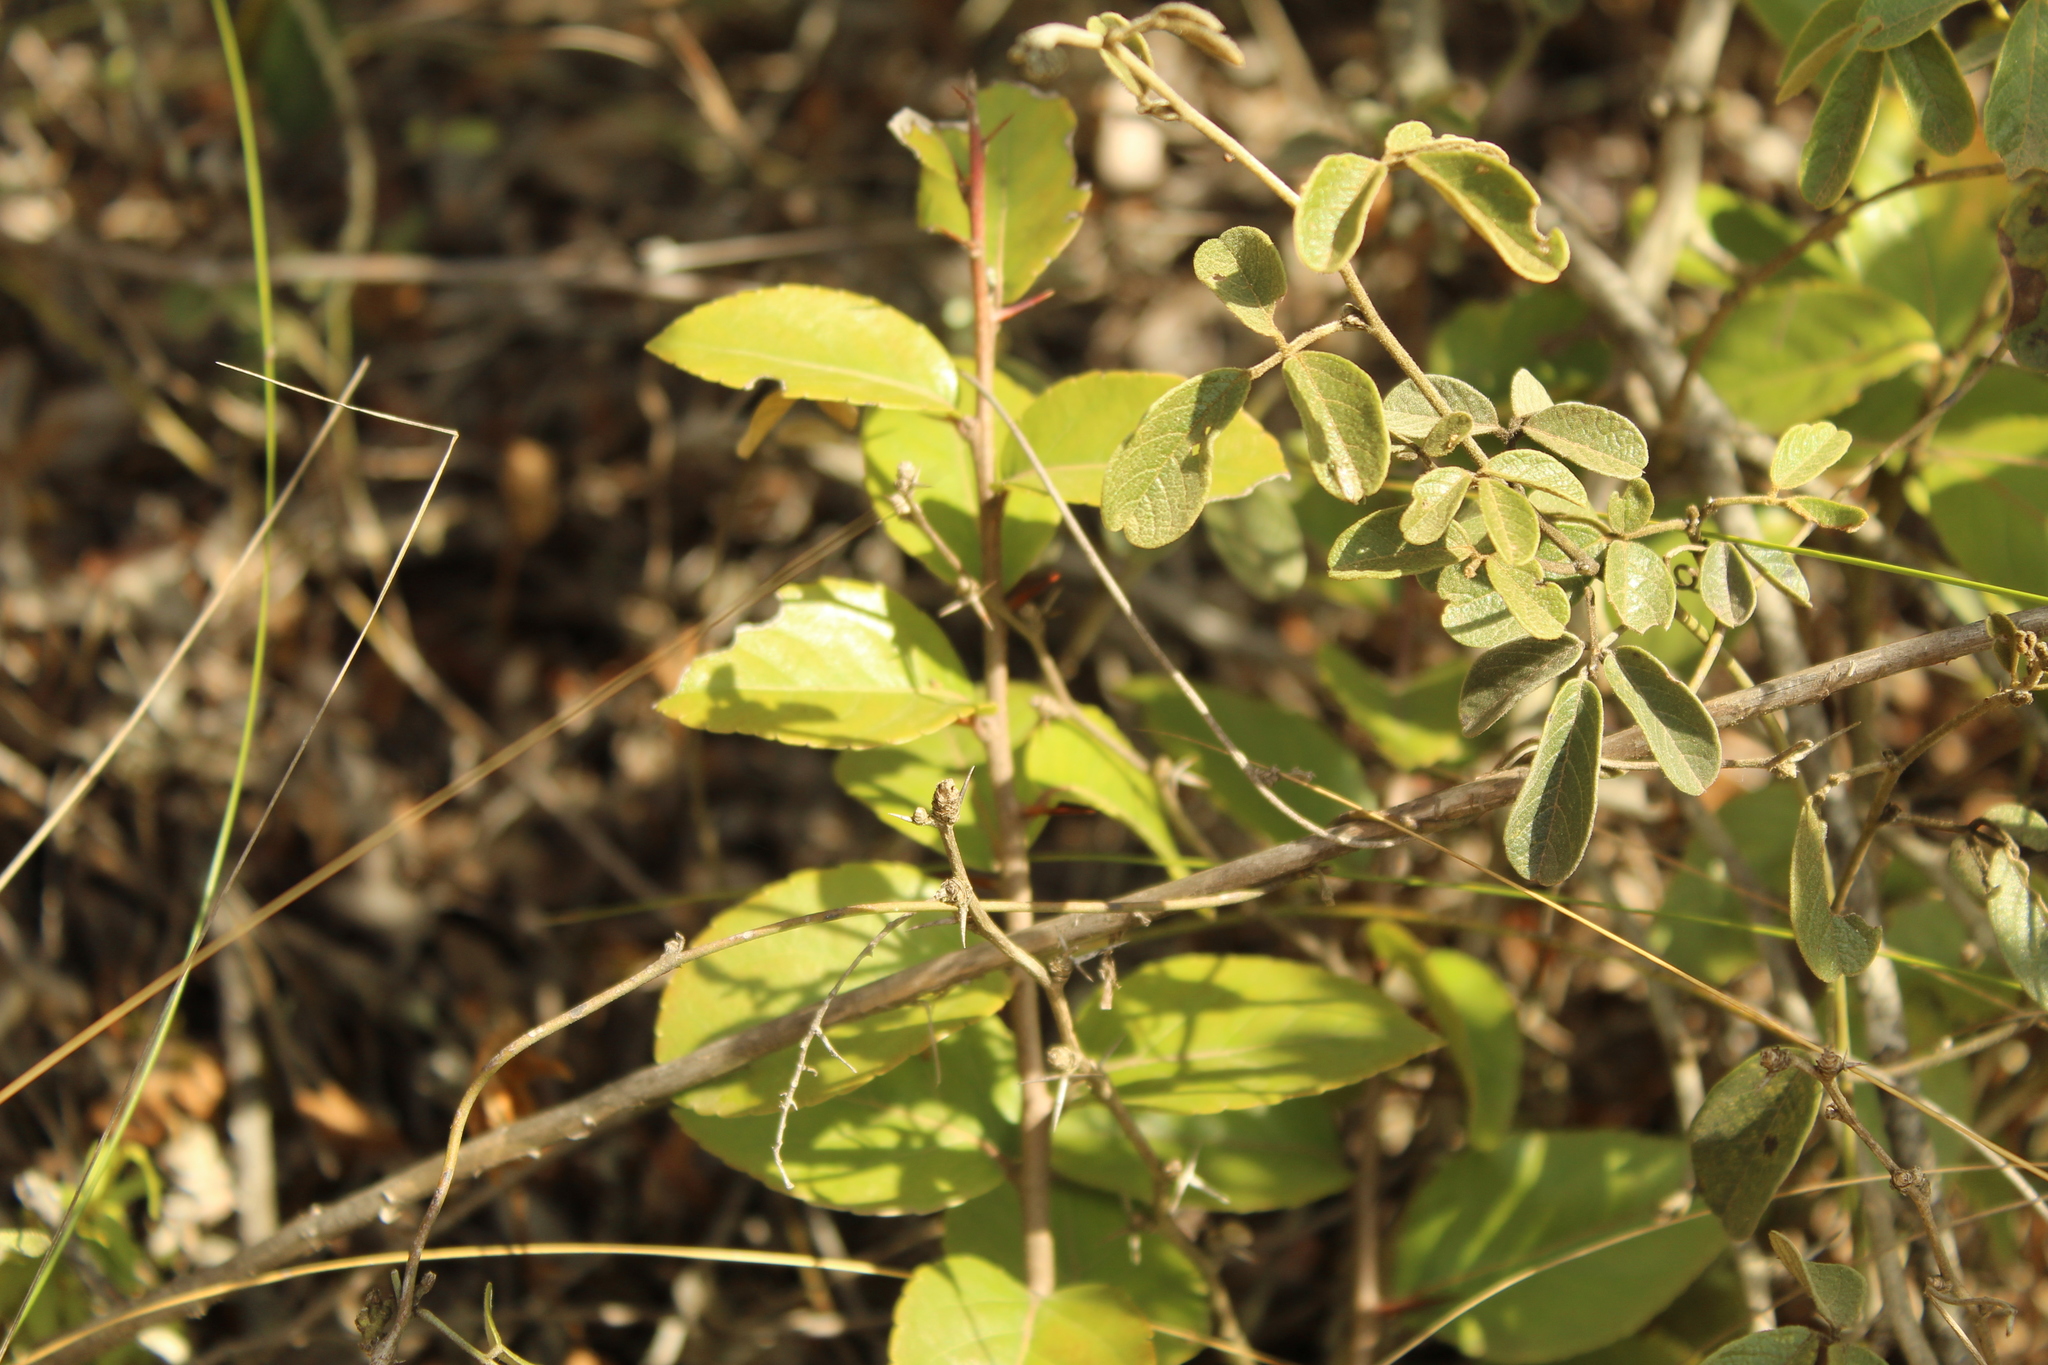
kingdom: Plantae
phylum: Tracheophyta
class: Magnoliopsida
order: Malpighiales
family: Salicaceae
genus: Xylosma
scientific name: Xylosma spiculifera
